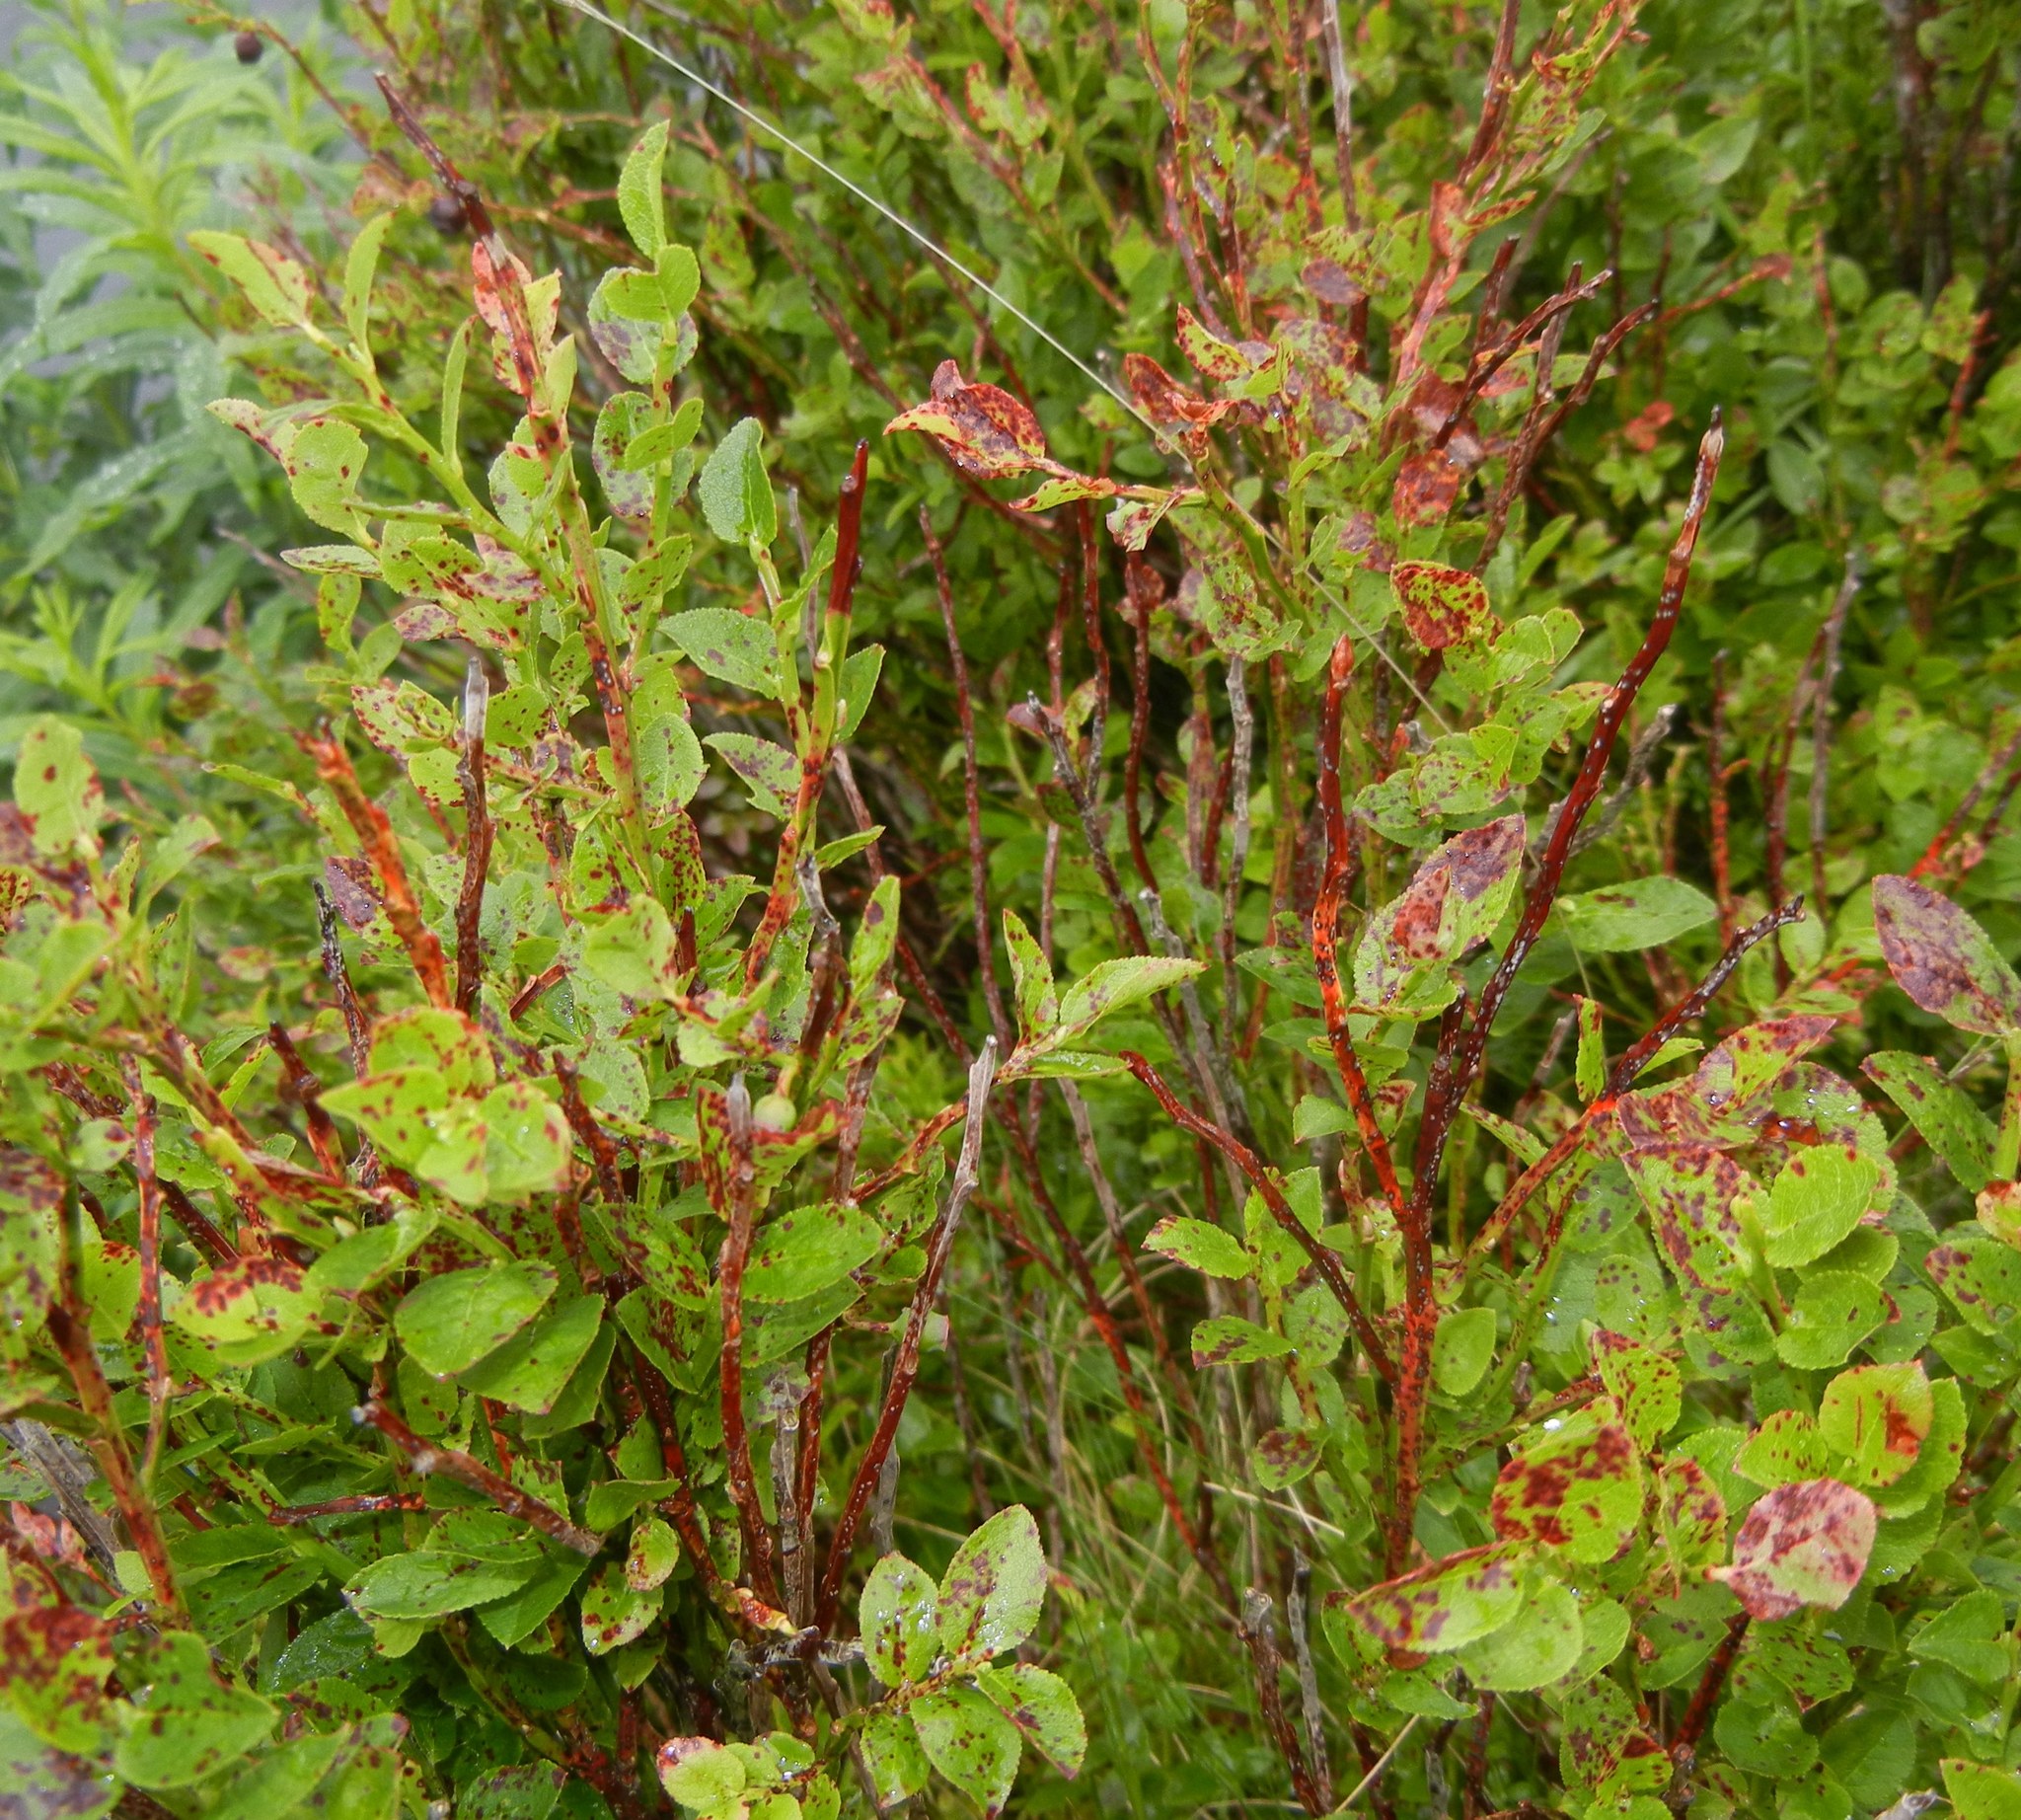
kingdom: Plantae
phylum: Tracheophyta
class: Magnoliopsida
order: Ericales
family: Ericaceae
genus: Vaccinium
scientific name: Vaccinium myrtillus
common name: Bilberry
